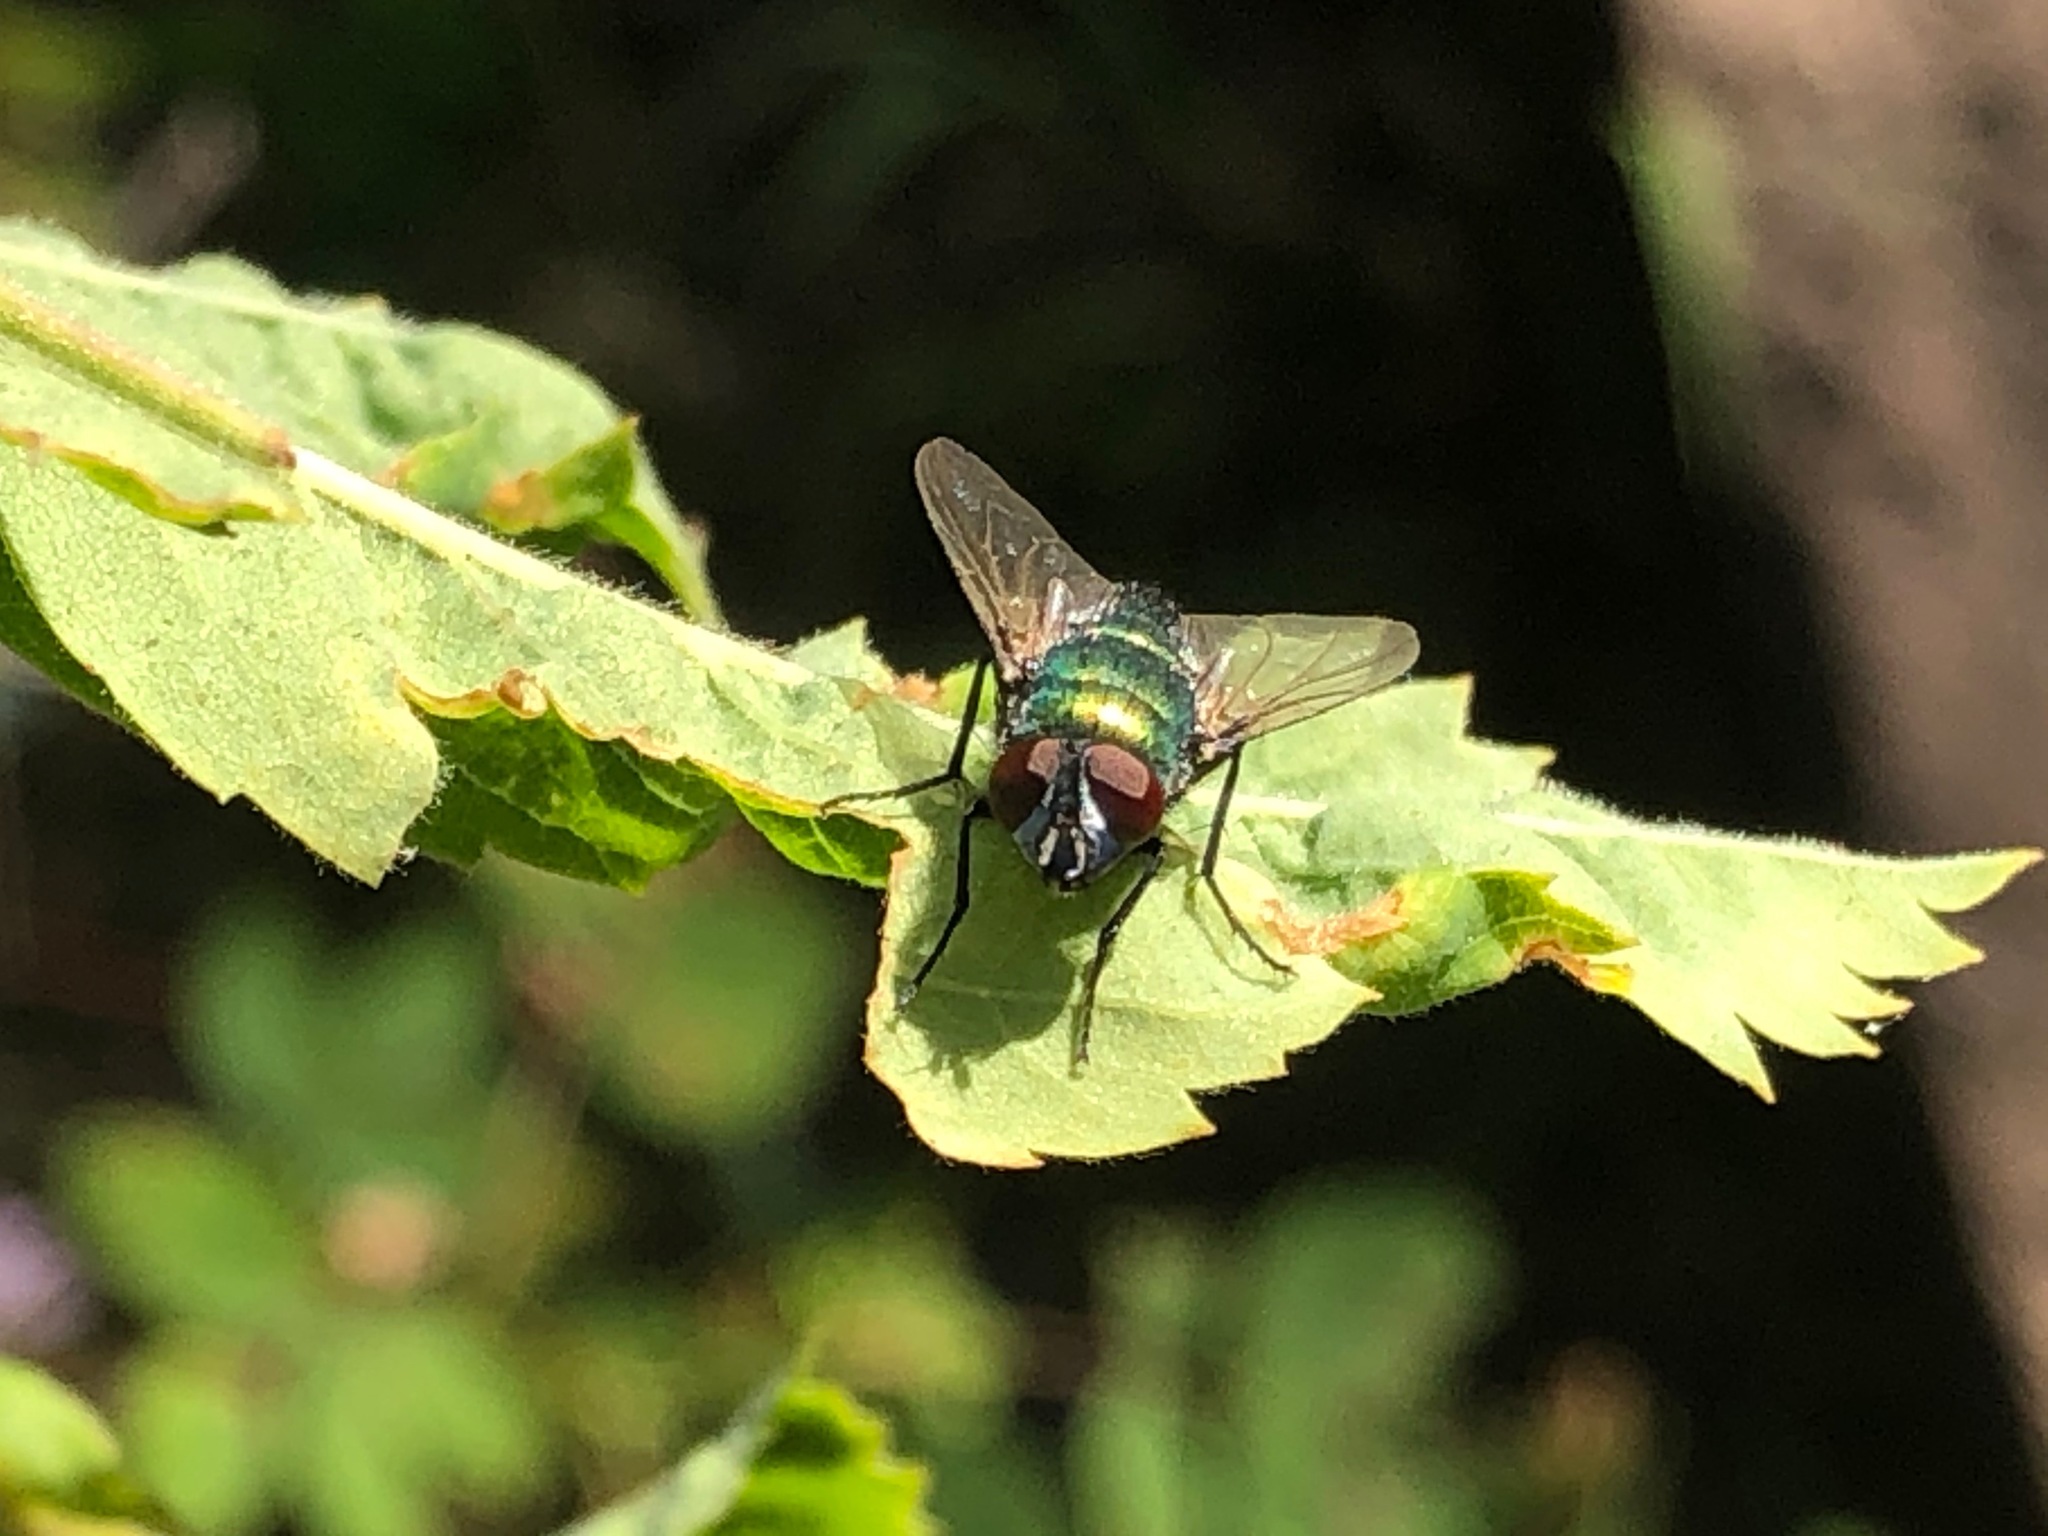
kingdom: Animalia
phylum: Arthropoda
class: Insecta
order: Diptera
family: Calliphoridae
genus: Lucilia
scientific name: Lucilia sericata
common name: Blow fly
